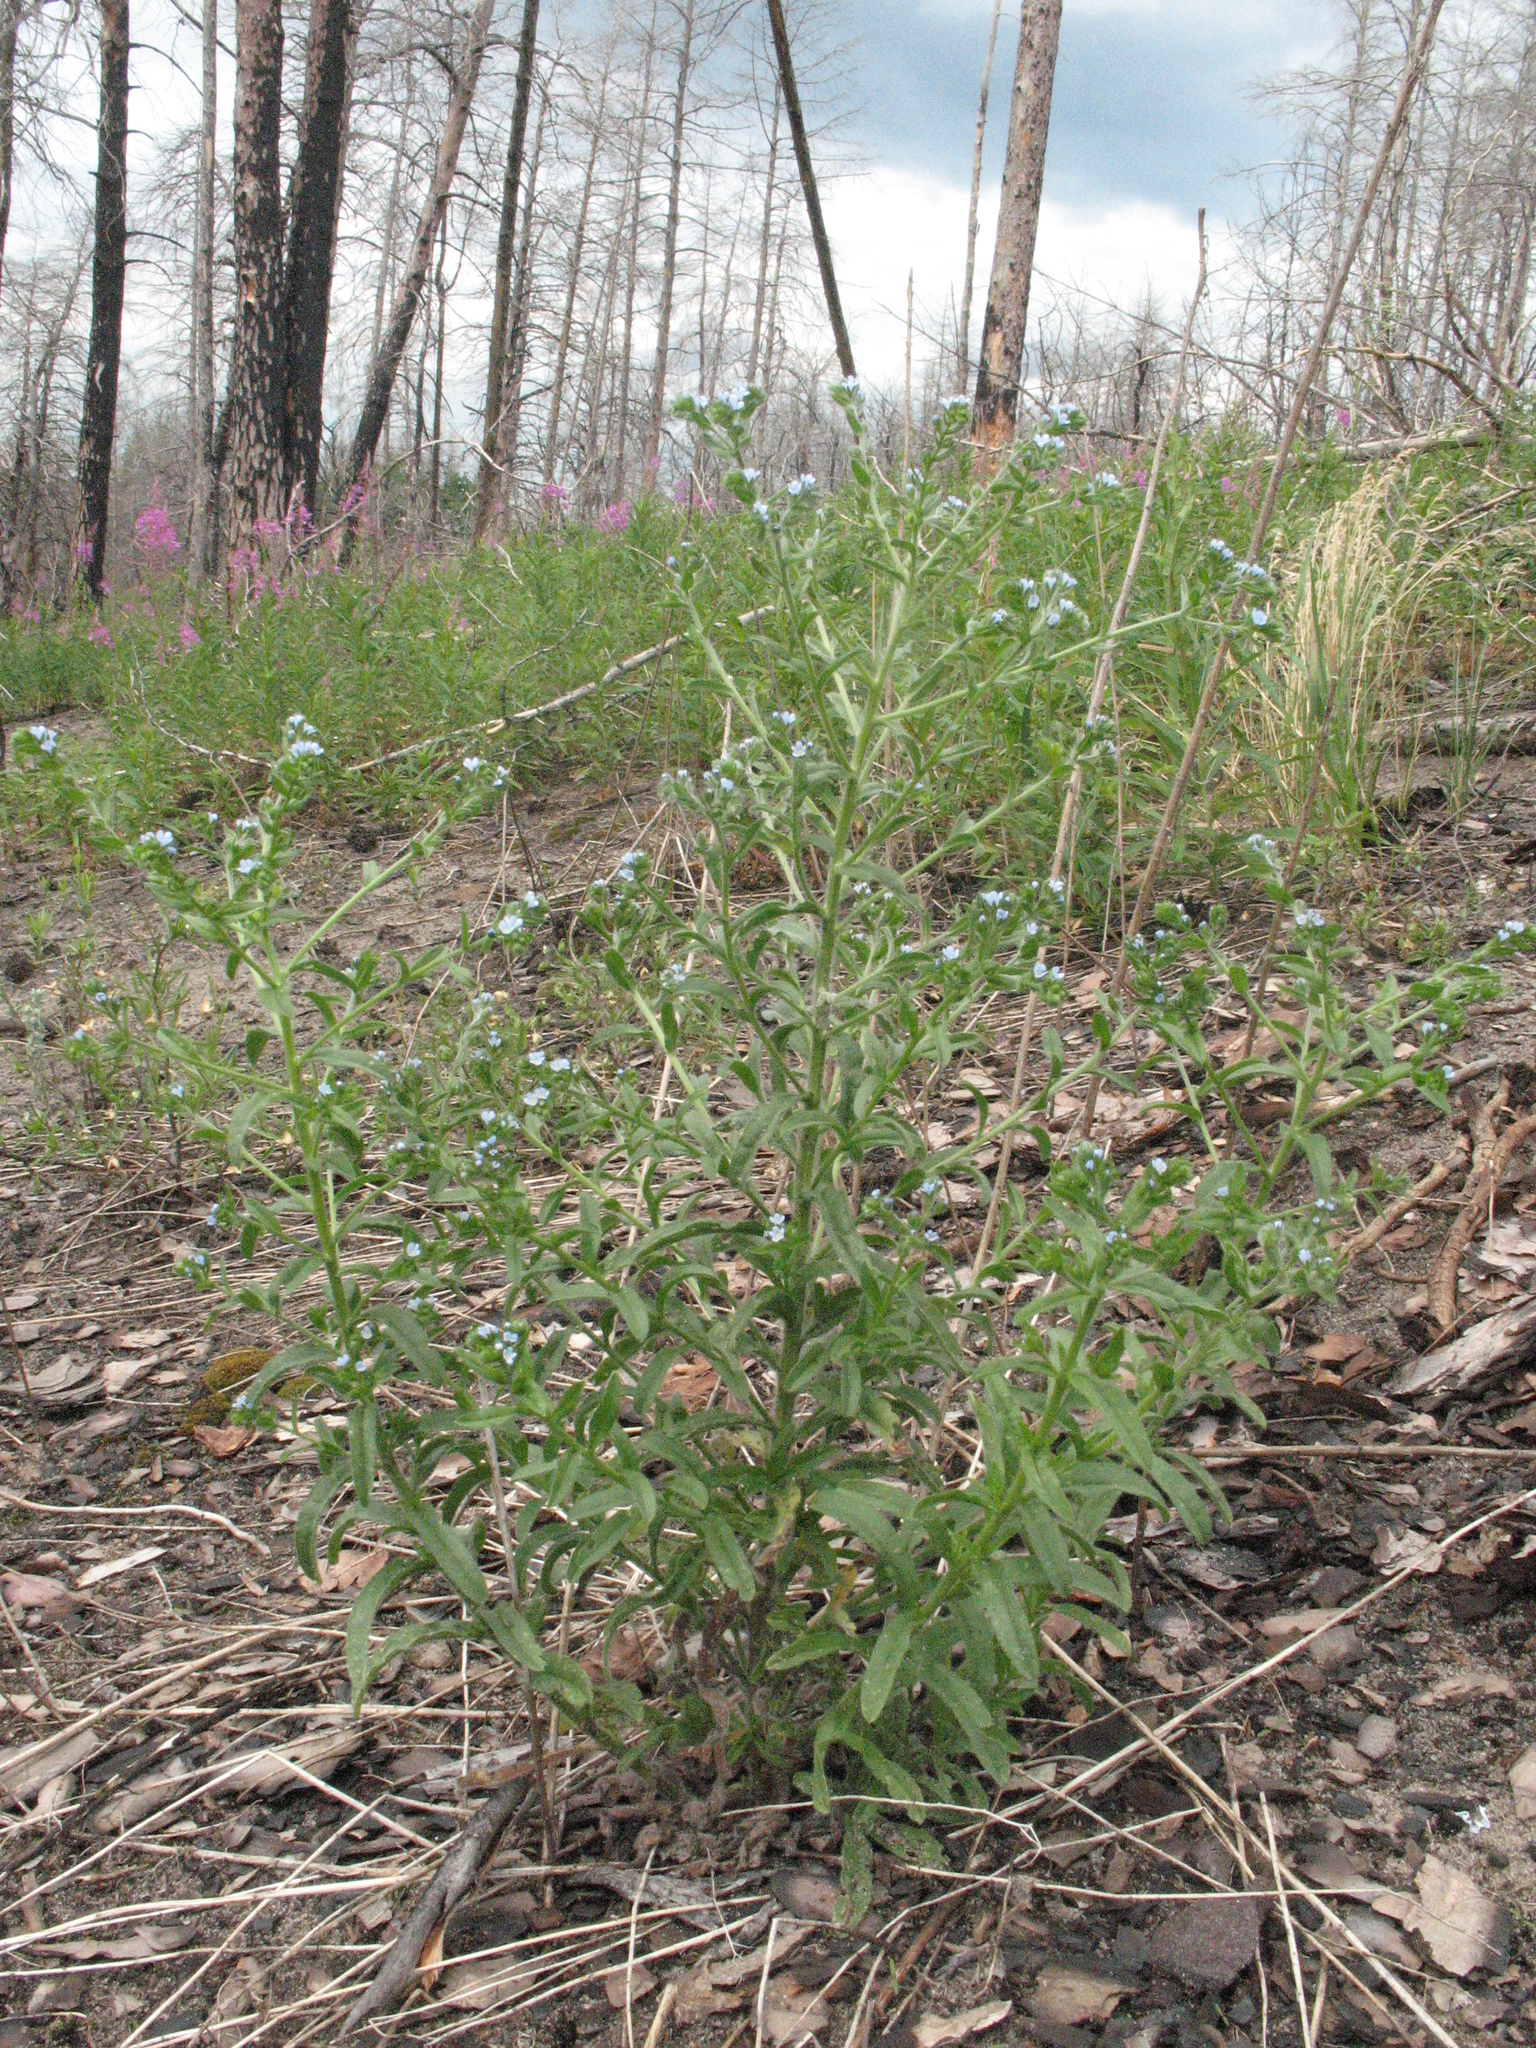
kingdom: Plantae
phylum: Tracheophyta
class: Magnoliopsida
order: Boraginales
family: Boraginaceae
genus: Lappula
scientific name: Lappula squarrosa
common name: European stickseed
